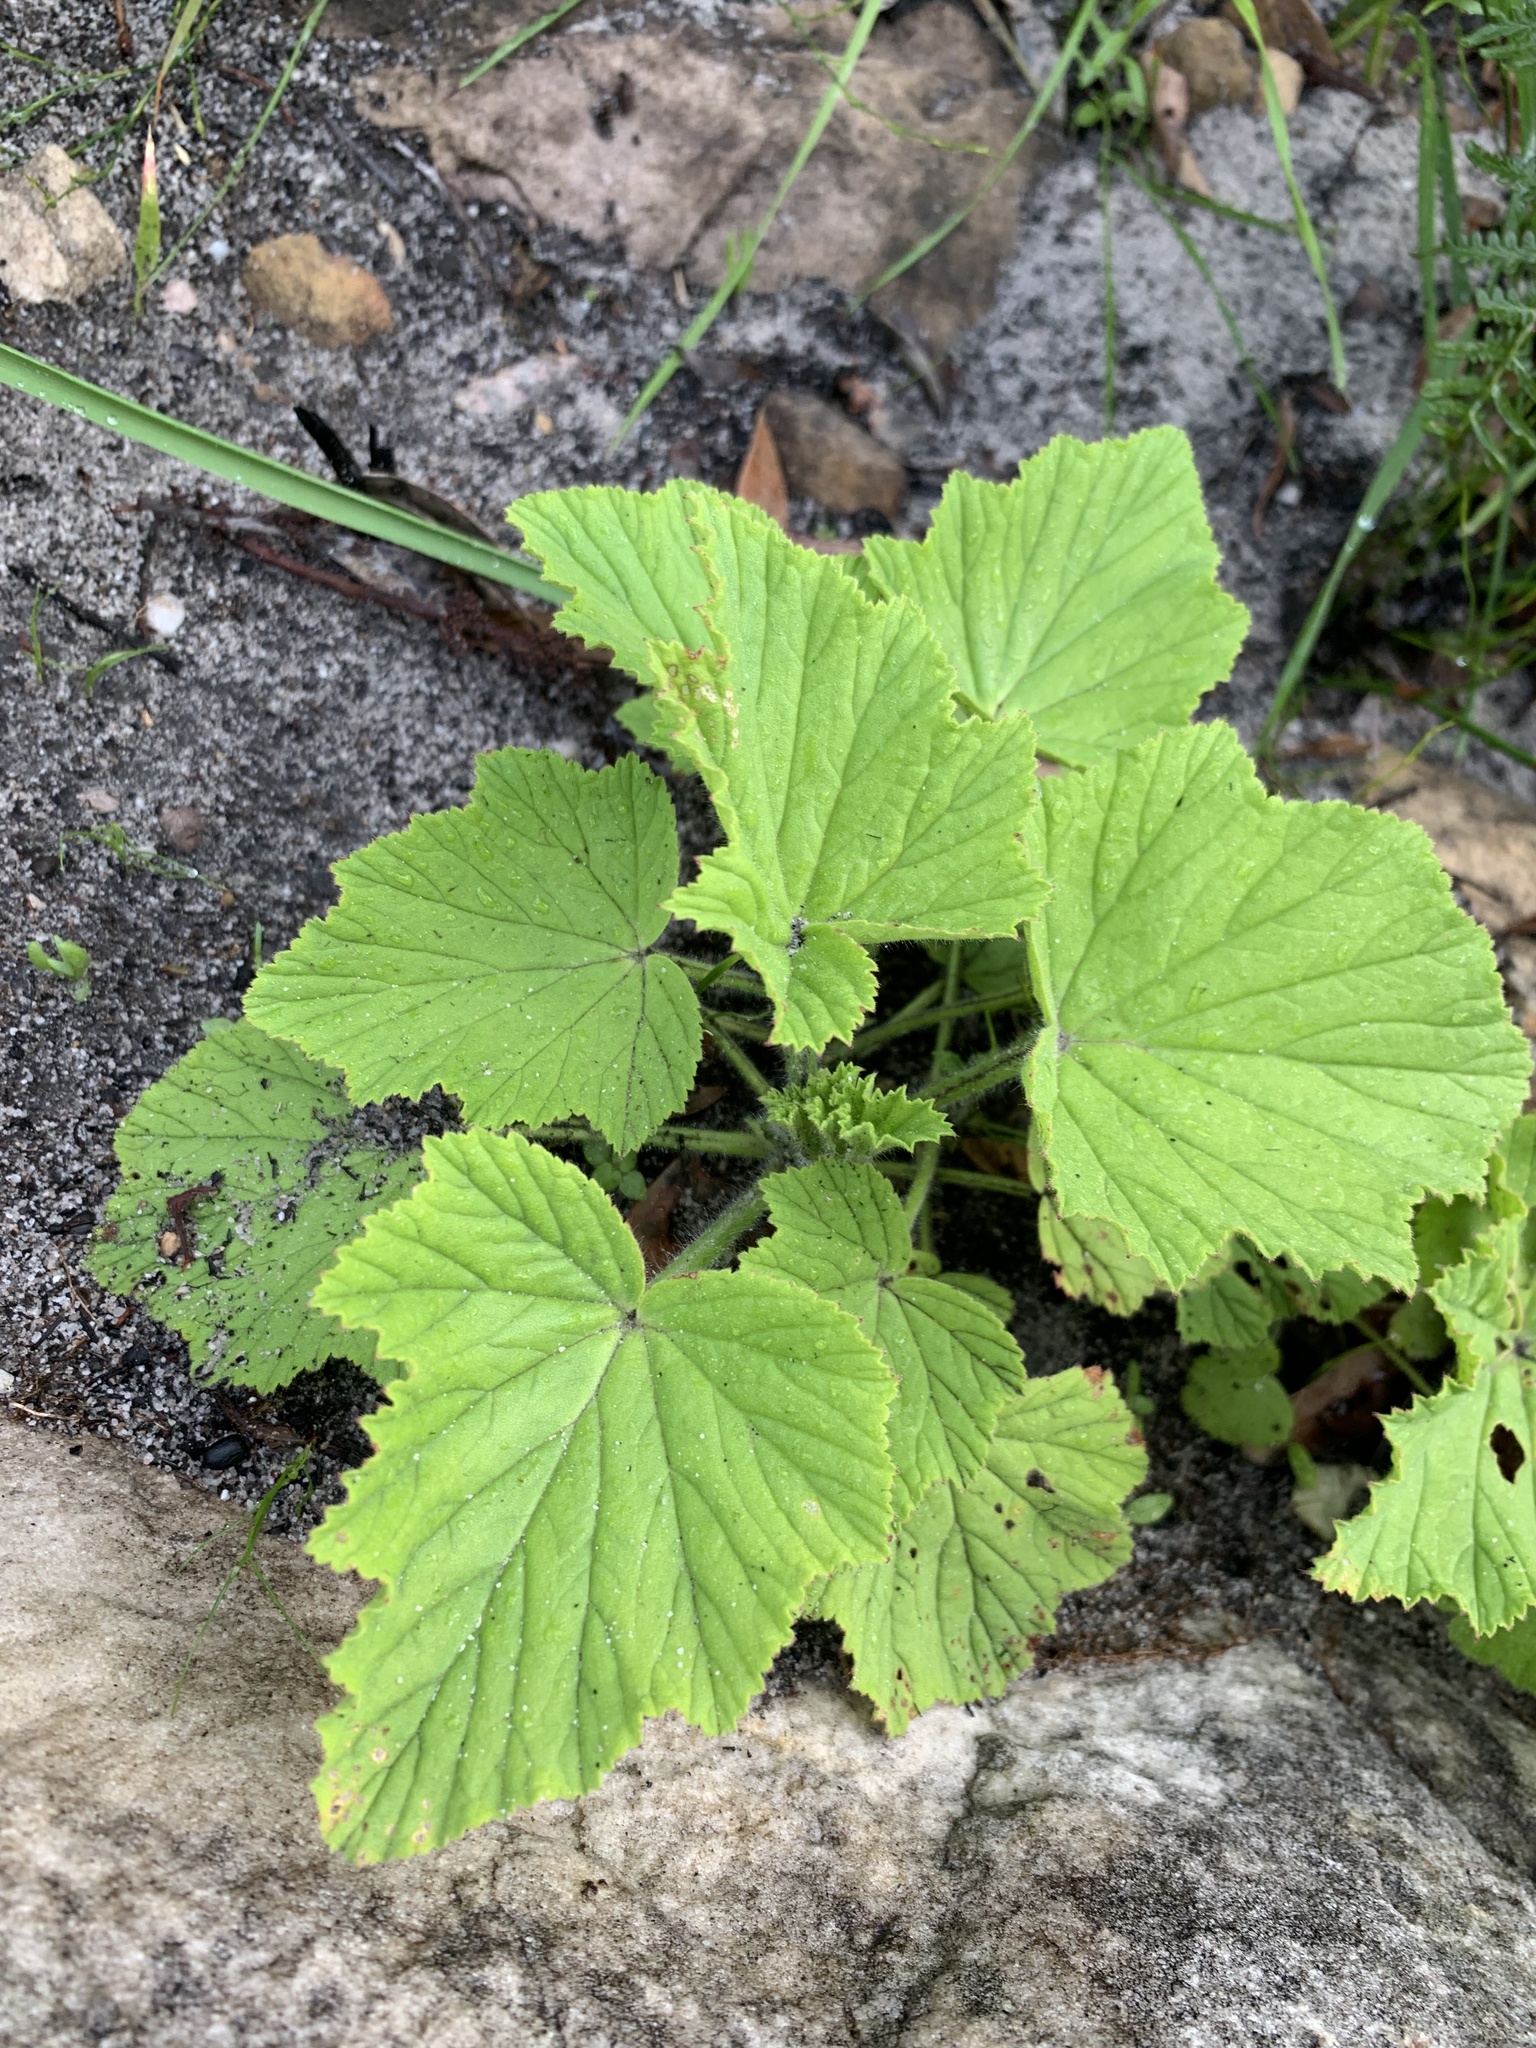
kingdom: Plantae
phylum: Tracheophyta
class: Magnoliopsida
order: Geraniales
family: Geraniaceae
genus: Pelargonium
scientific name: Pelargonium cucullatum
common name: Tree pelargonium
